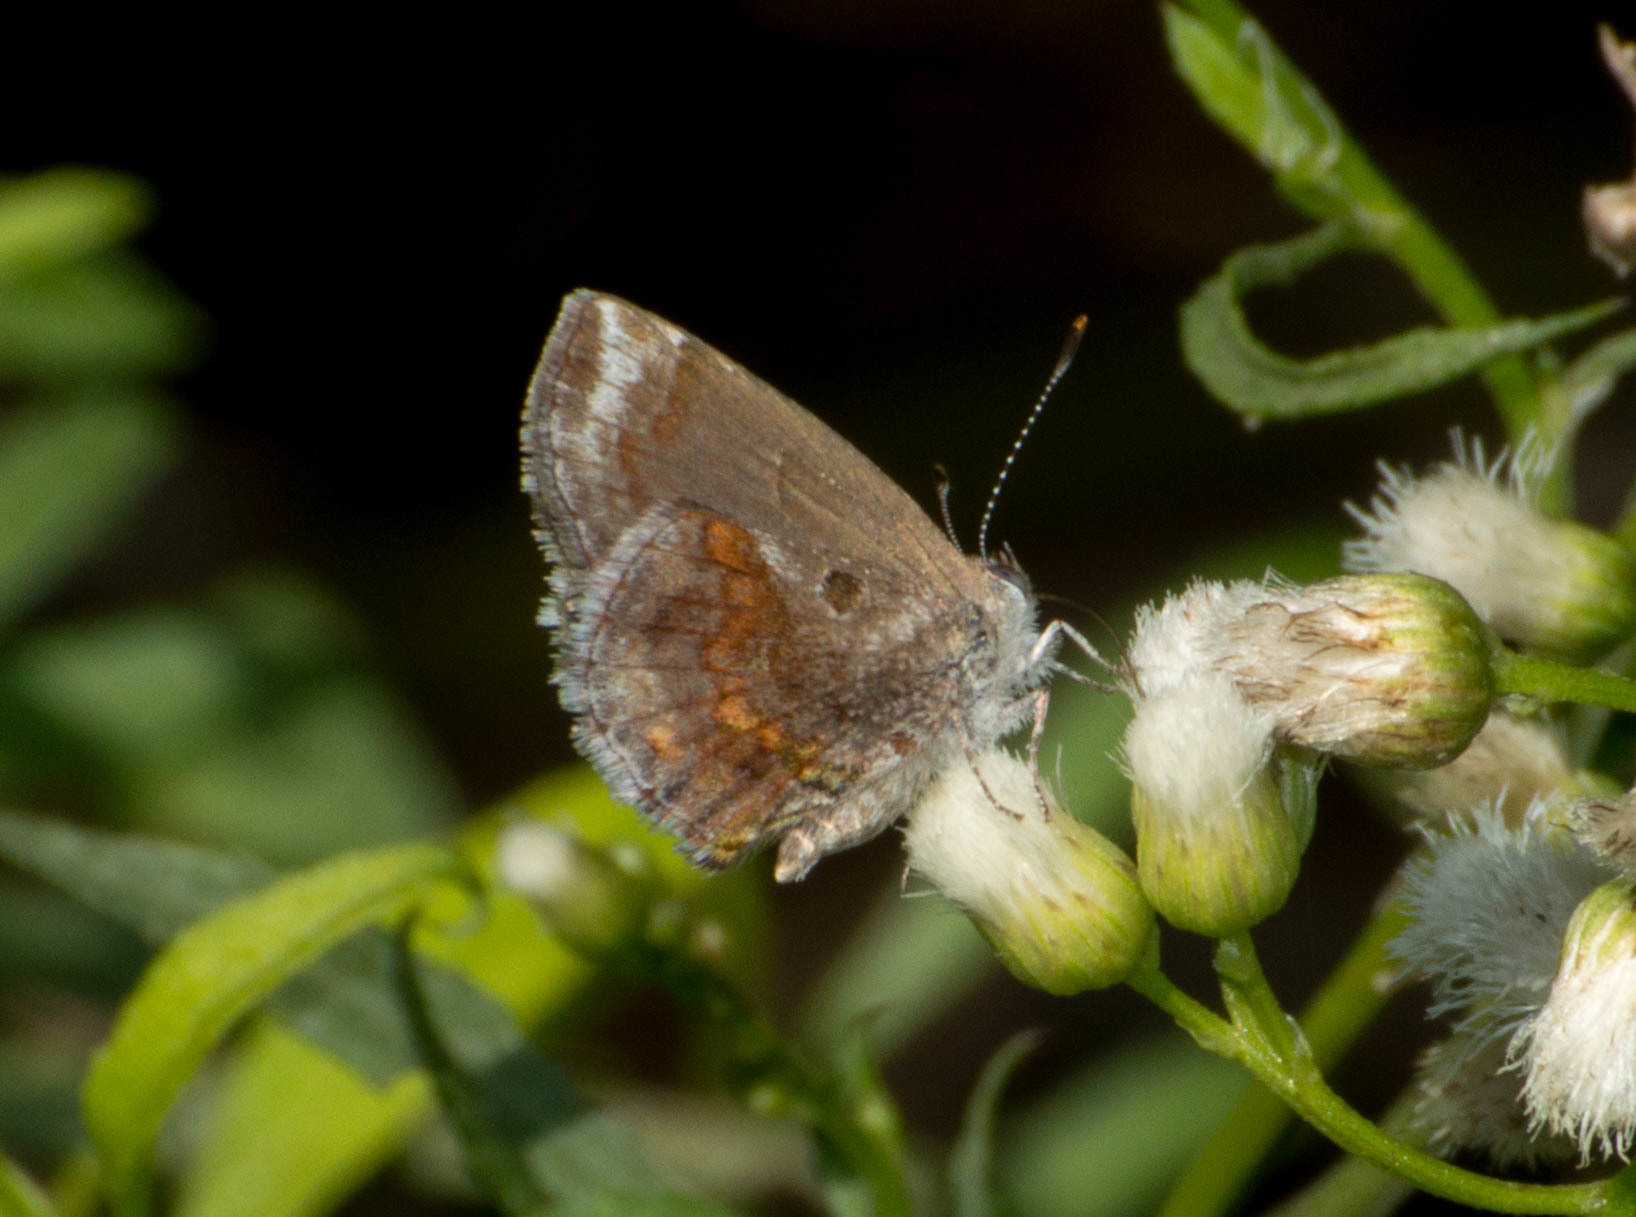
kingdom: Animalia
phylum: Arthropoda
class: Insecta
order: Lepidoptera
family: Lycaenidae
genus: Strymon
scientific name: Strymon bazochii
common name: Lantana scrub-hairstreak
